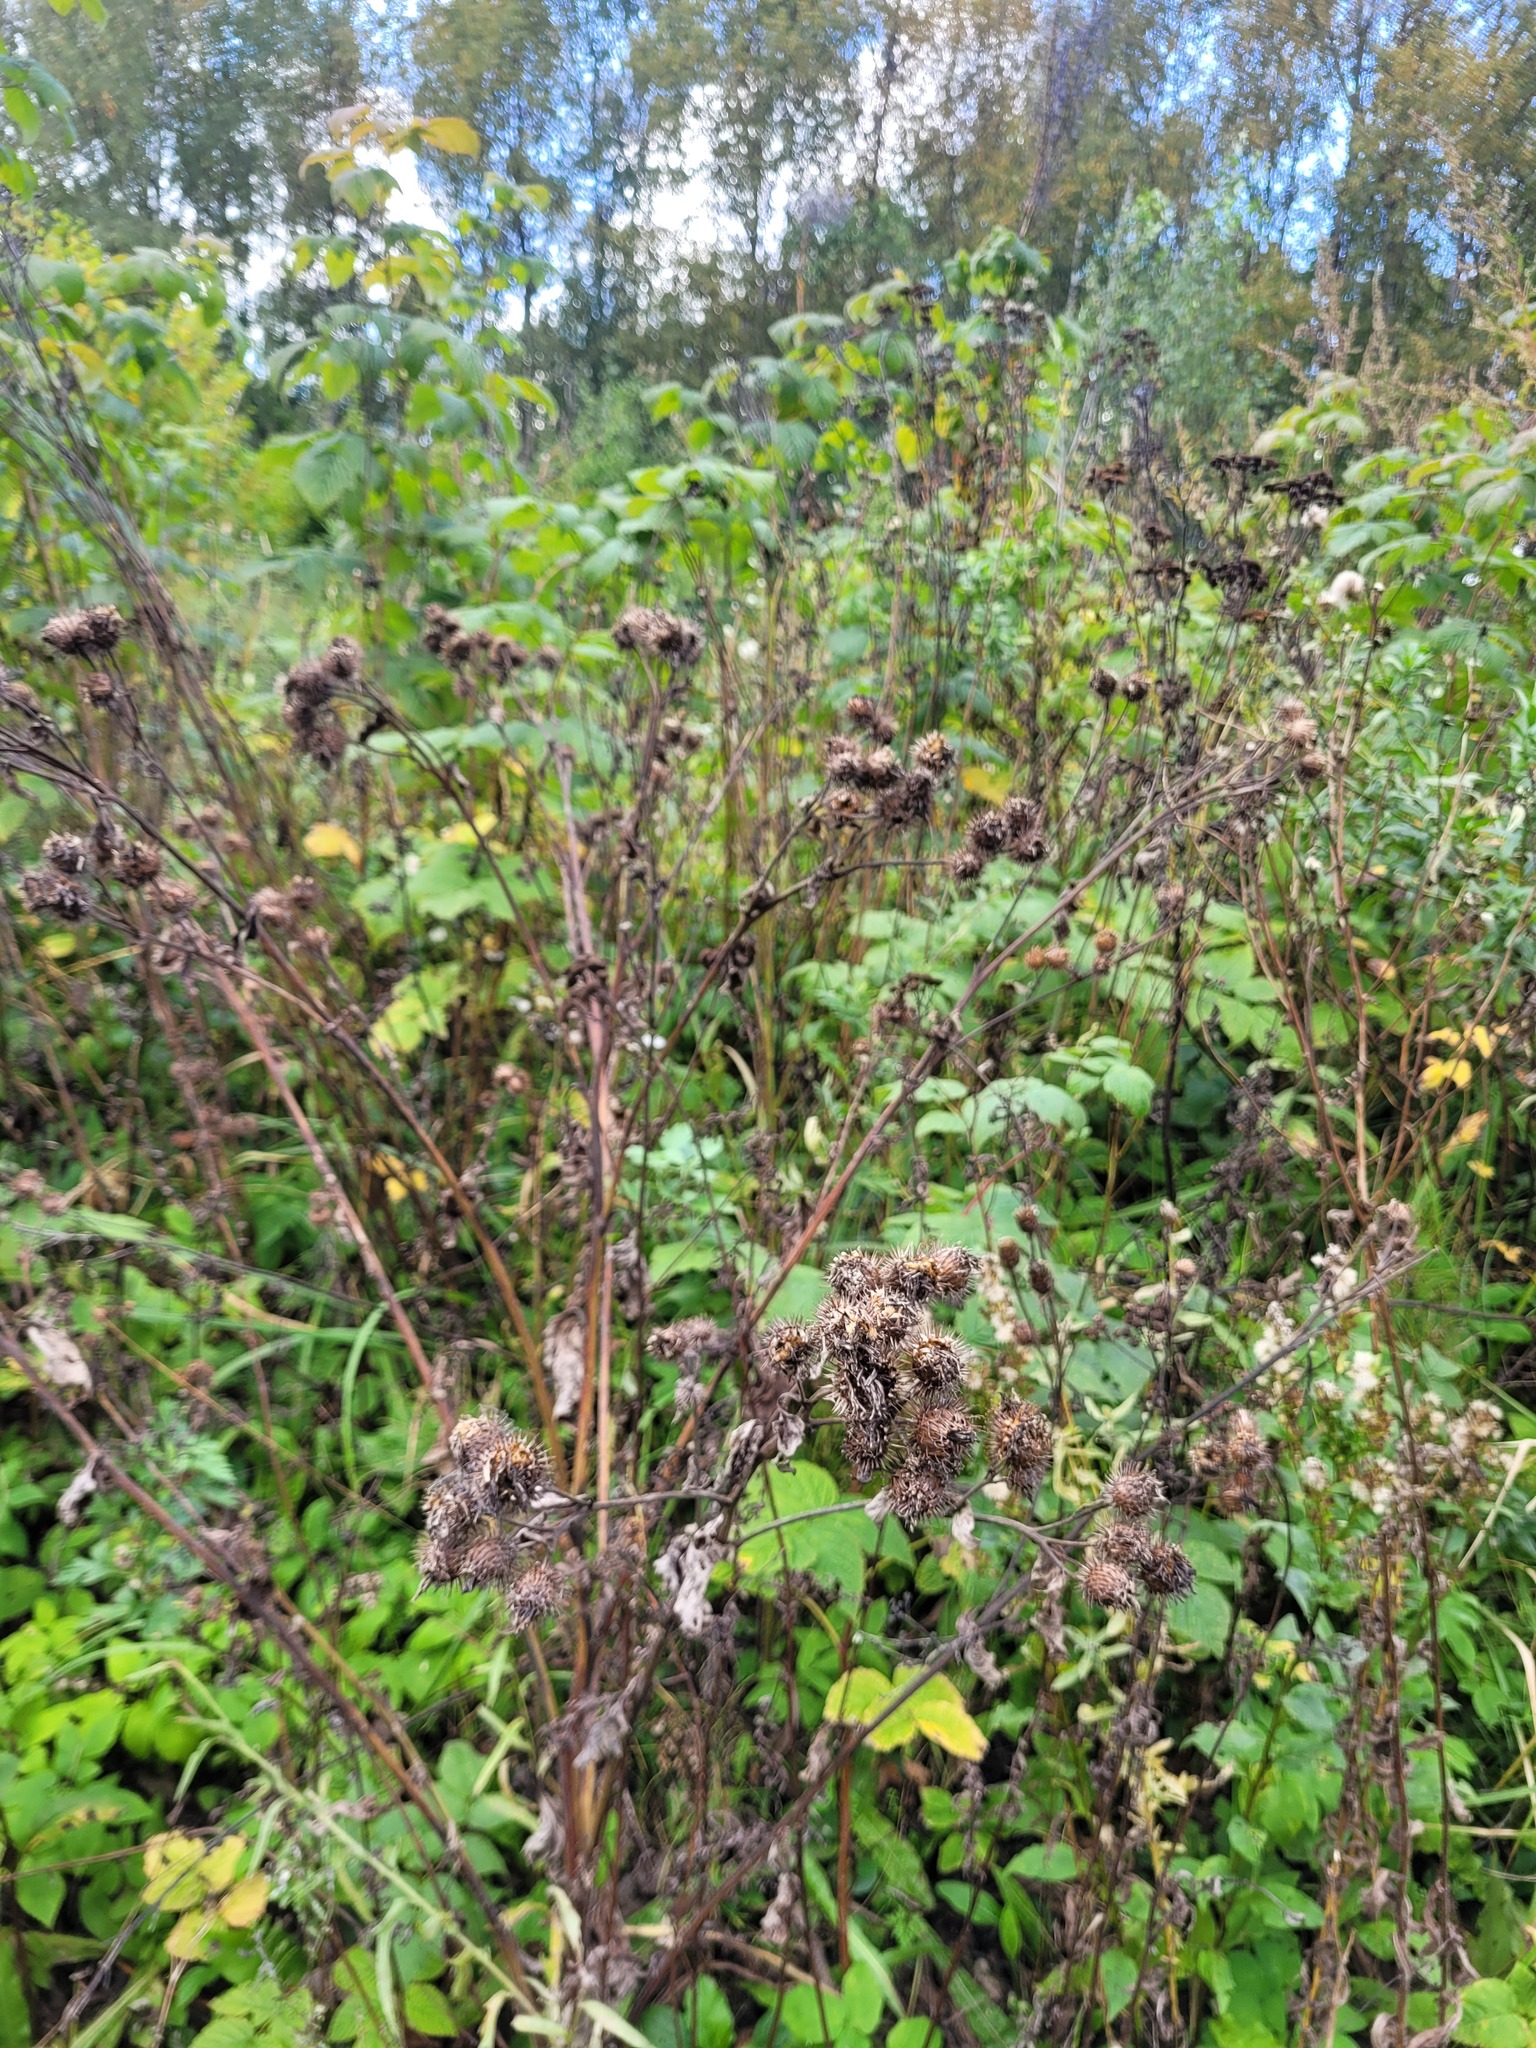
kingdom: Plantae
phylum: Tracheophyta
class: Magnoliopsida
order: Asterales
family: Asteraceae
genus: Arctium
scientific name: Arctium tomentosum
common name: Woolly burdock
